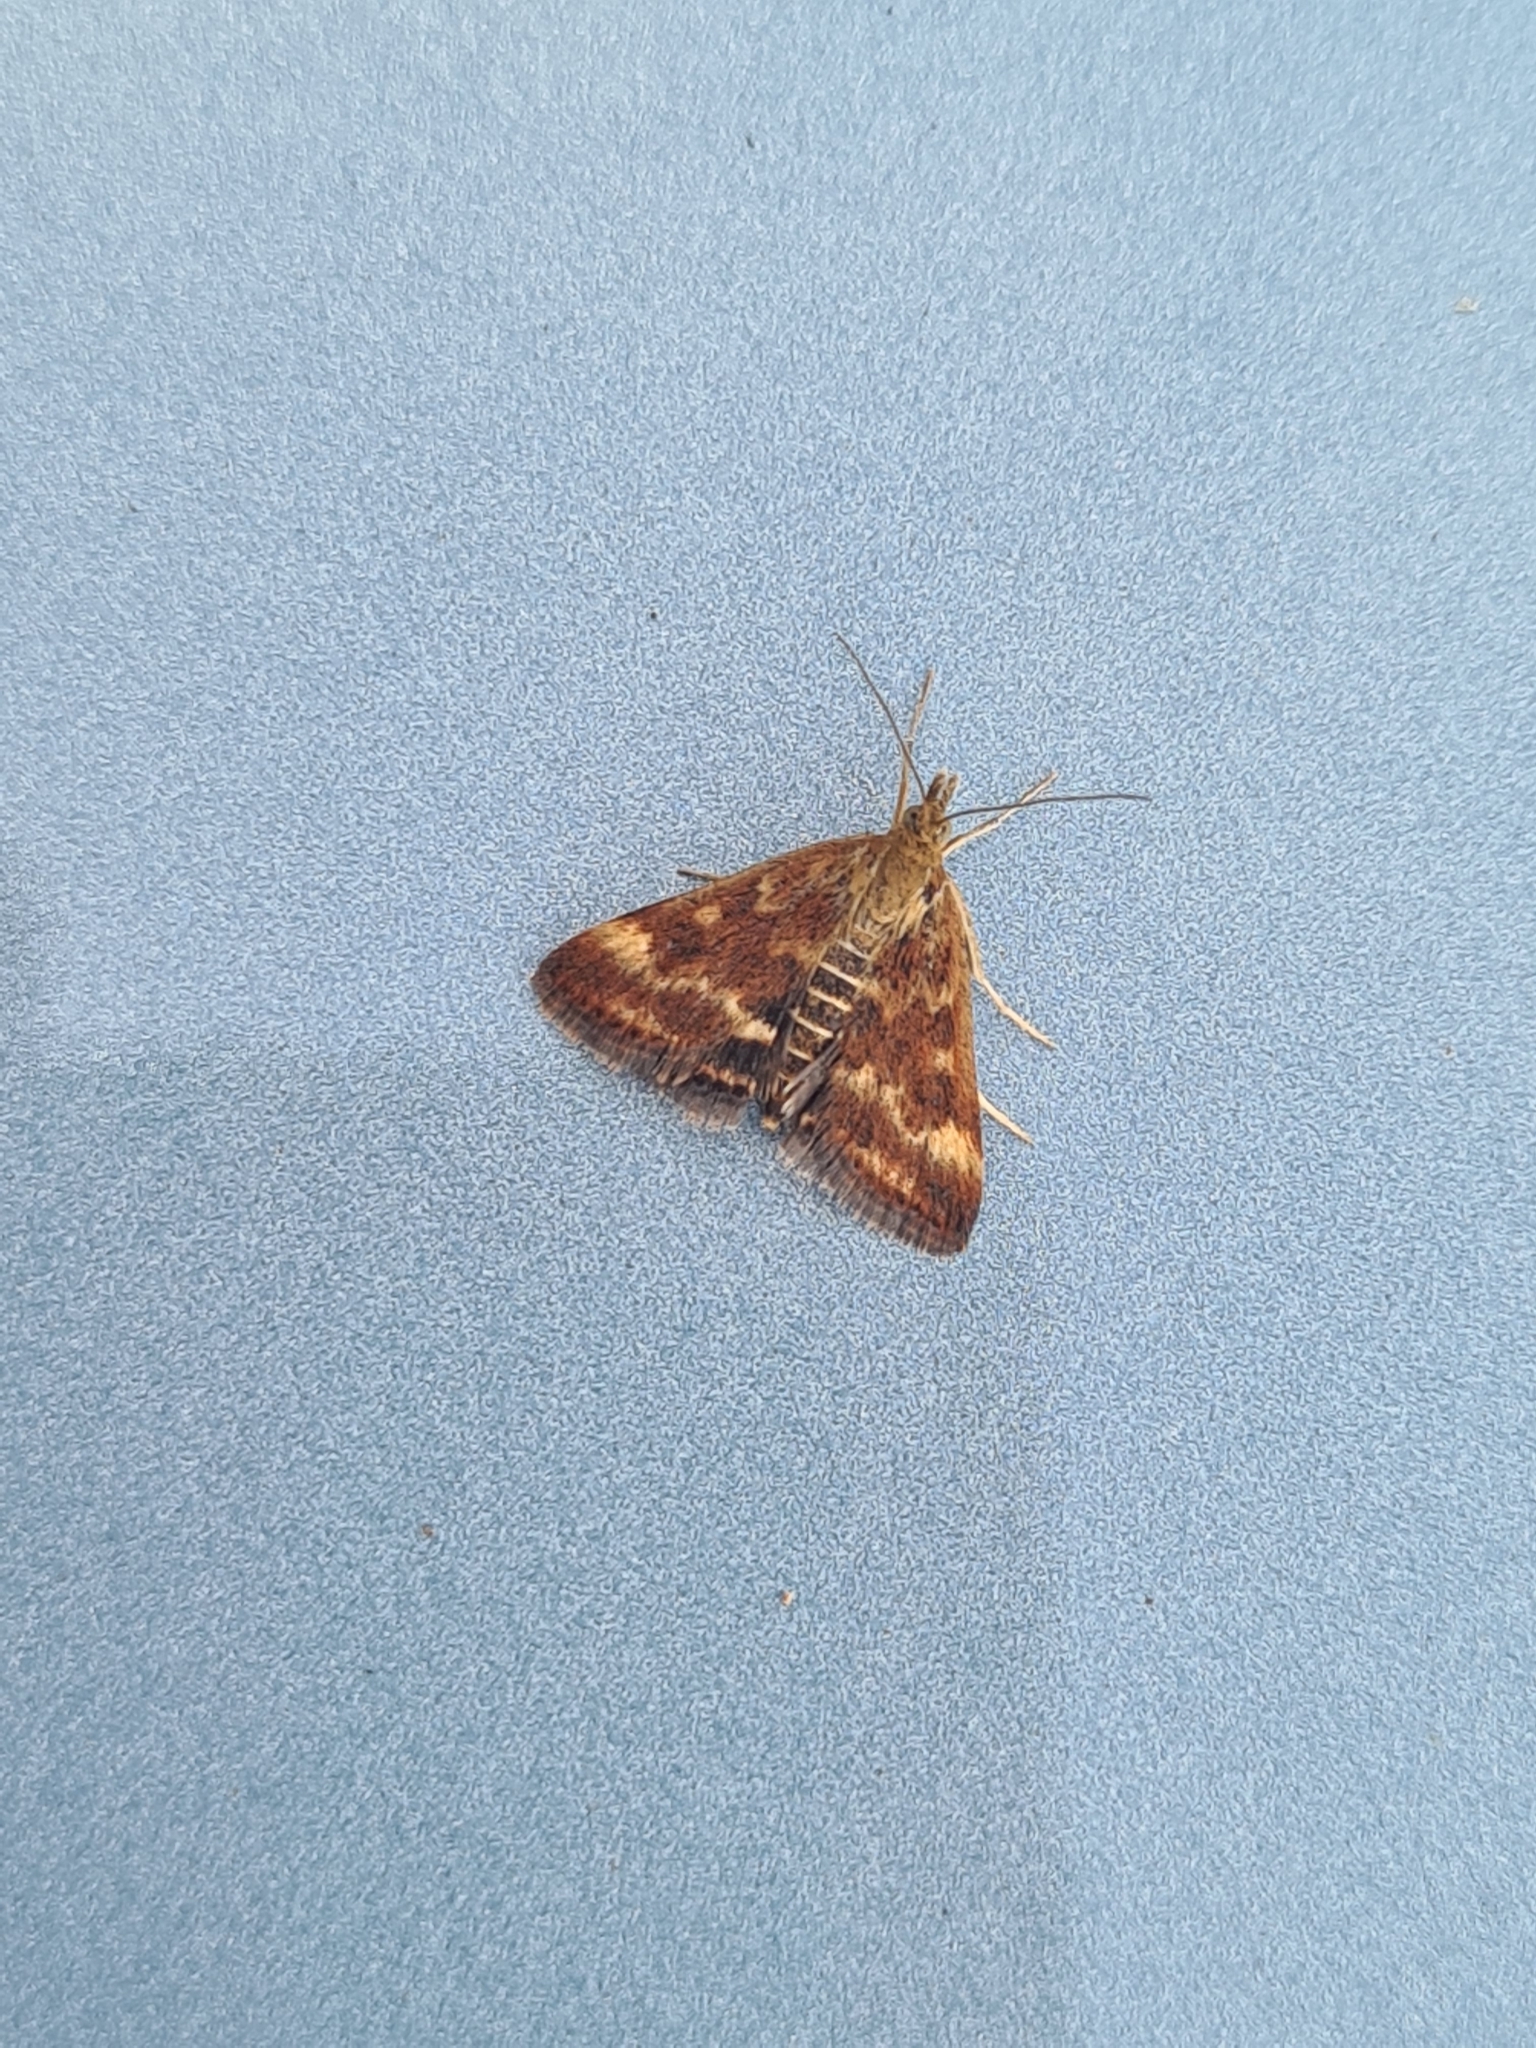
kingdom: Animalia
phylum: Arthropoda
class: Insecta
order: Lepidoptera
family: Crambidae
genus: Pyrausta
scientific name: Pyrausta despicata
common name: Straw-barred pearl
